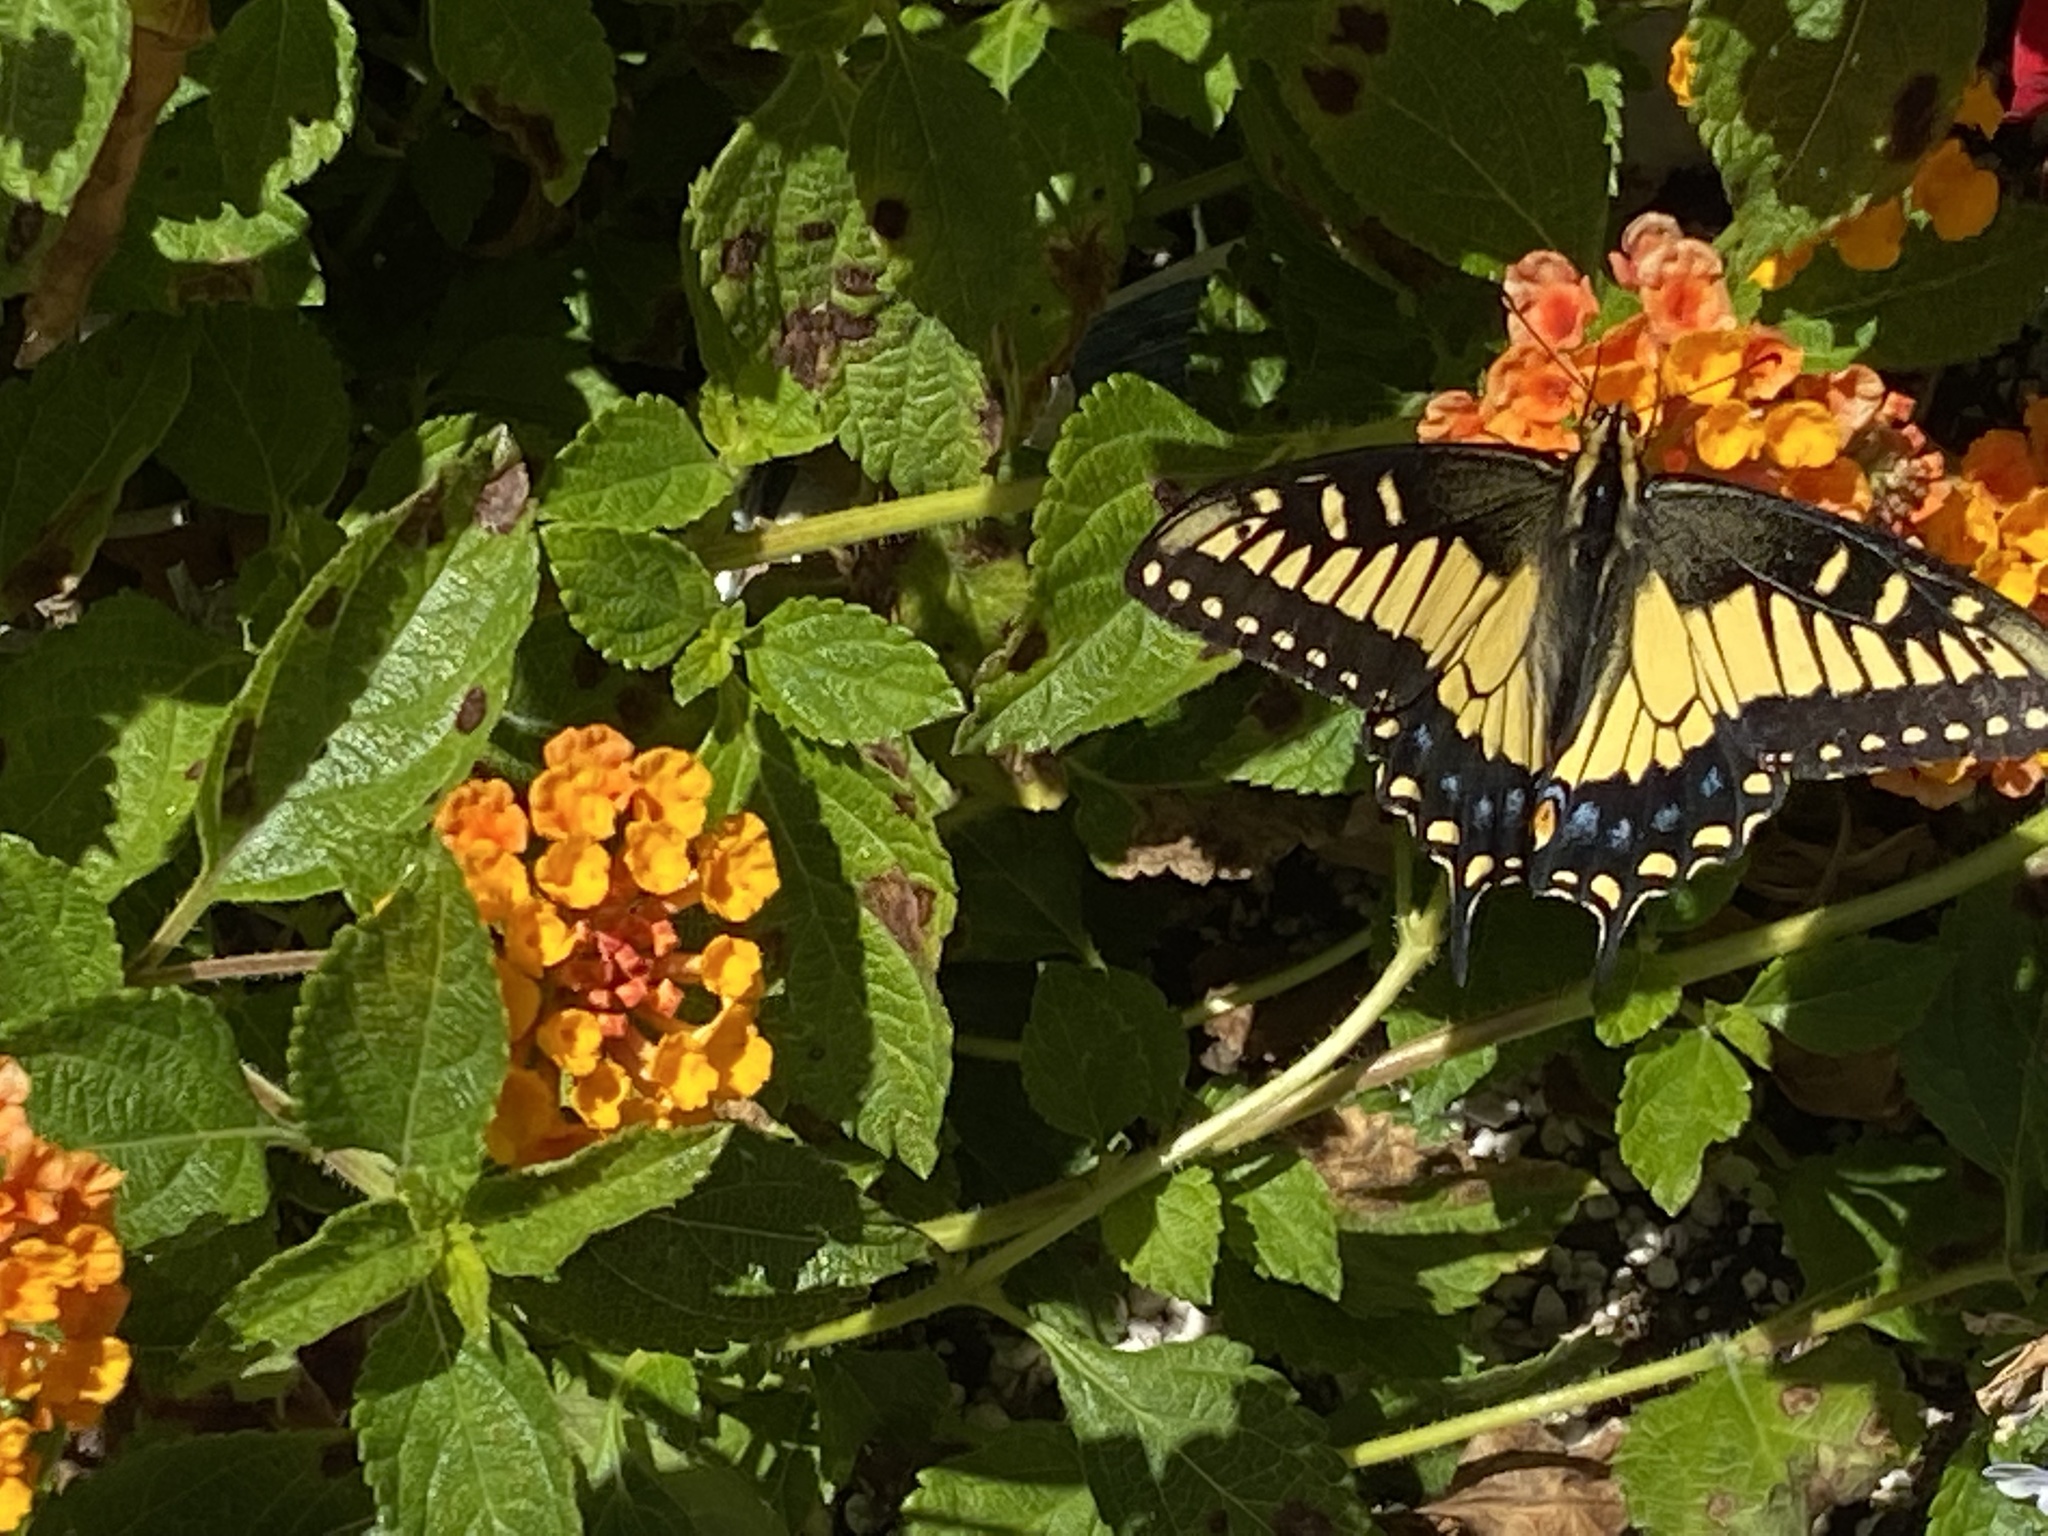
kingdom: Animalia
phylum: Arthropoda
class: Insecta
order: Lepidoptera
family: Papilionidae
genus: Papilio
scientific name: Papilio zelicaon
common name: Anise swallowtail
